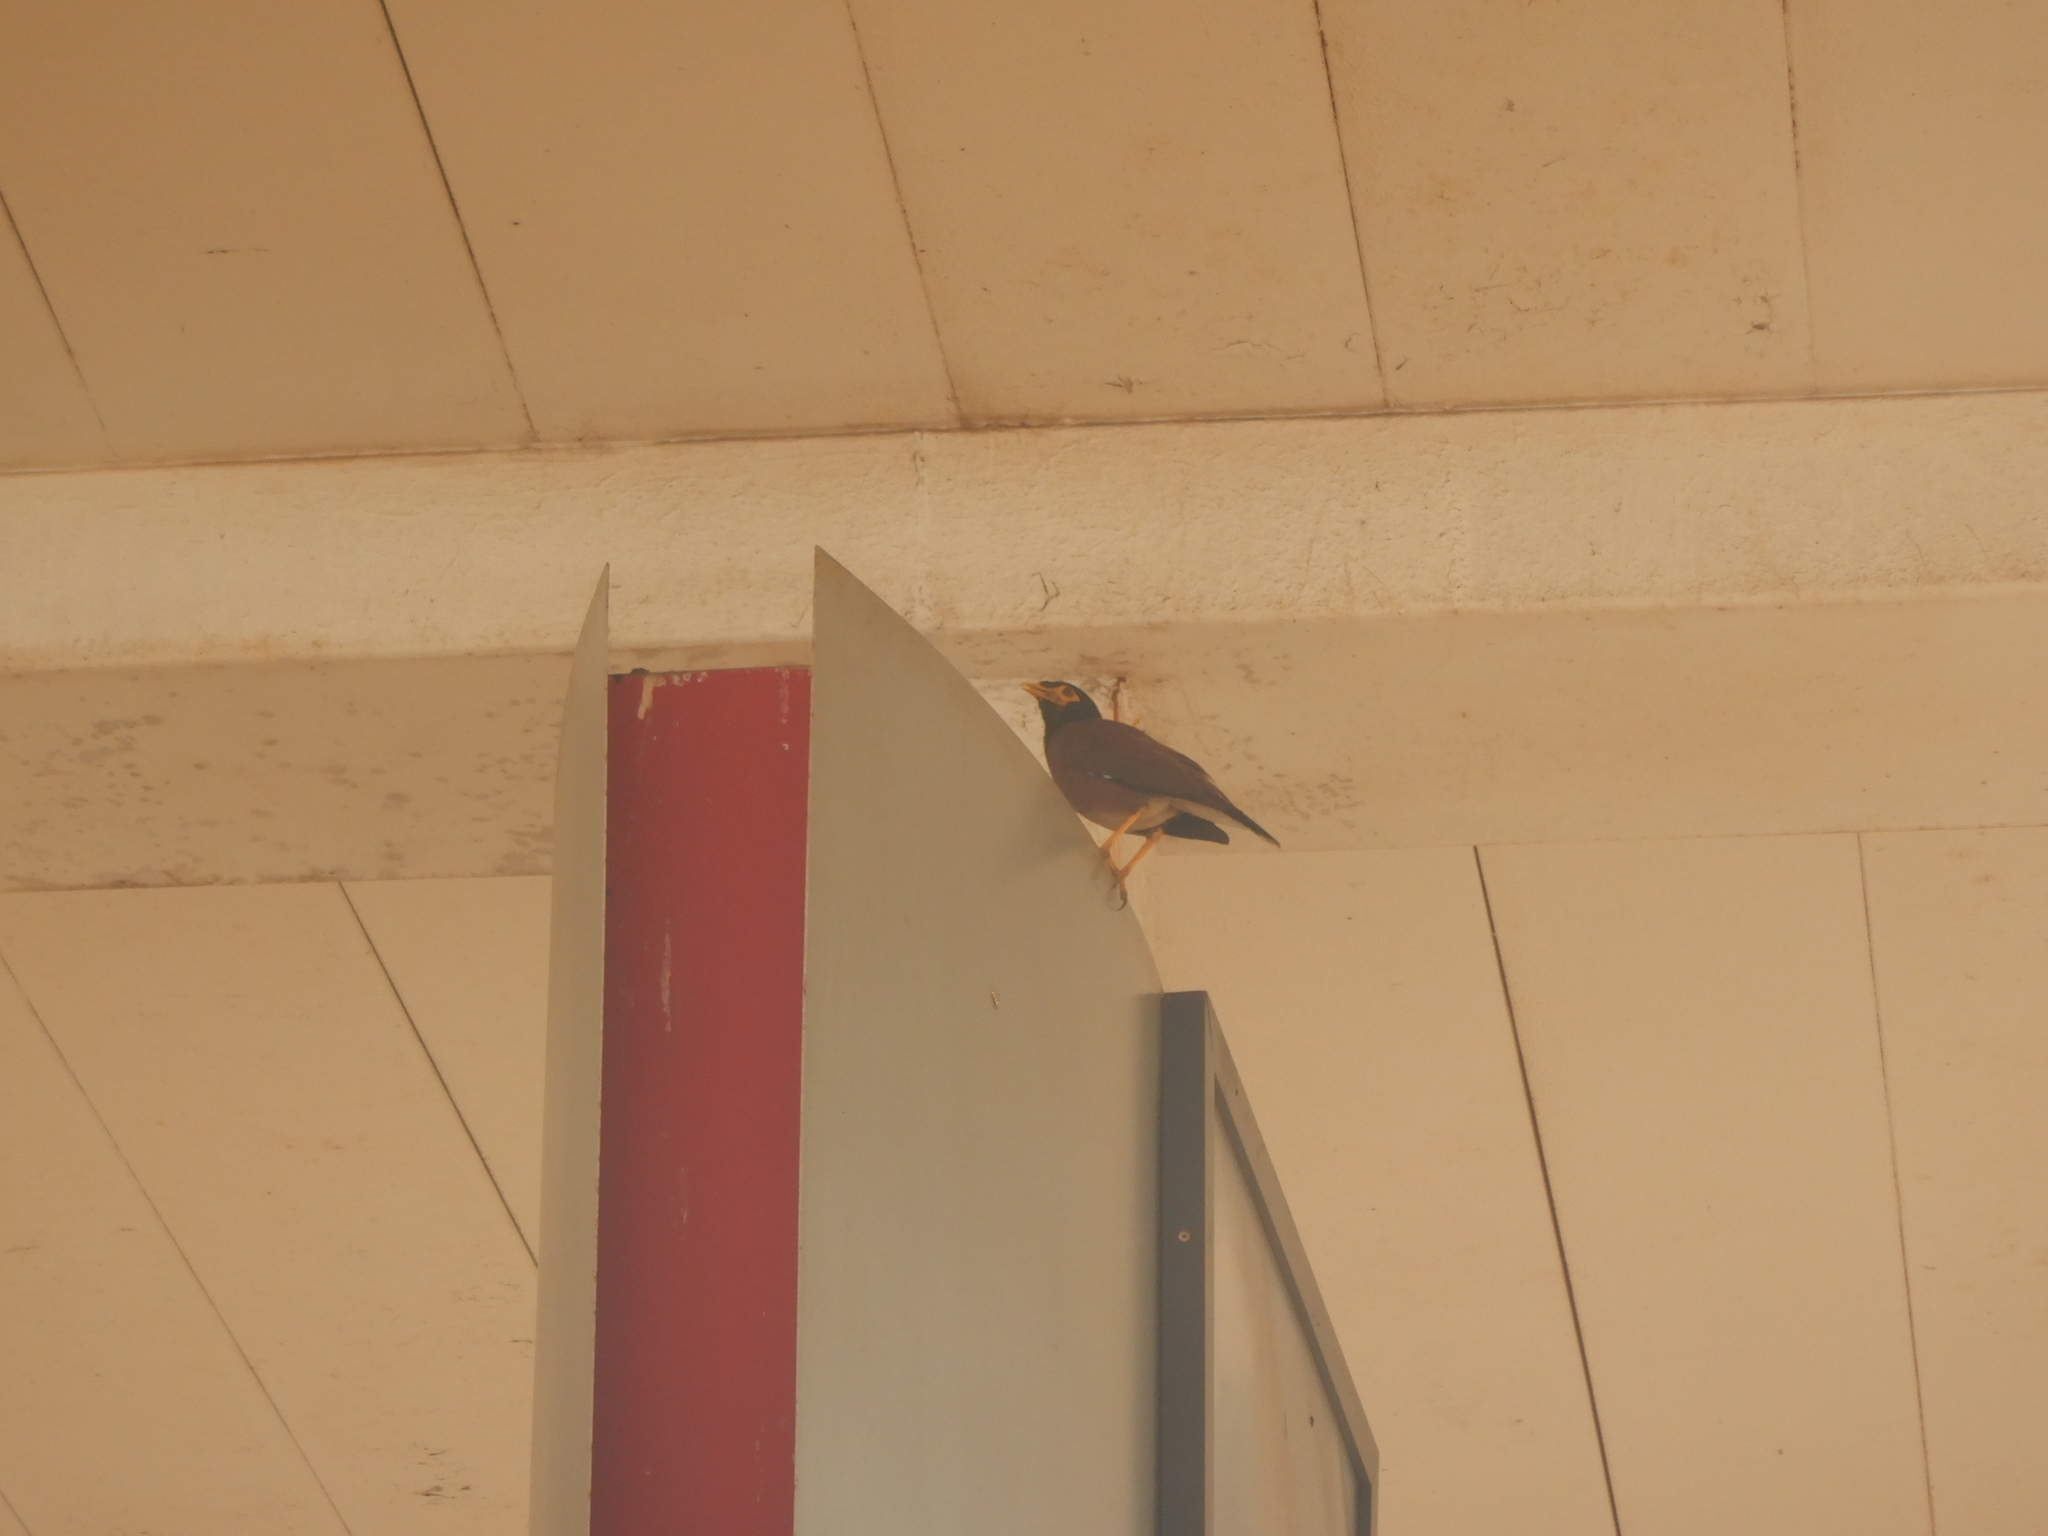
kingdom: Animalia
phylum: Chordata
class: Aves
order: Passeriformes
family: Sturnidae
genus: Acridotheres
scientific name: Acridotheres tristis
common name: Common myna
